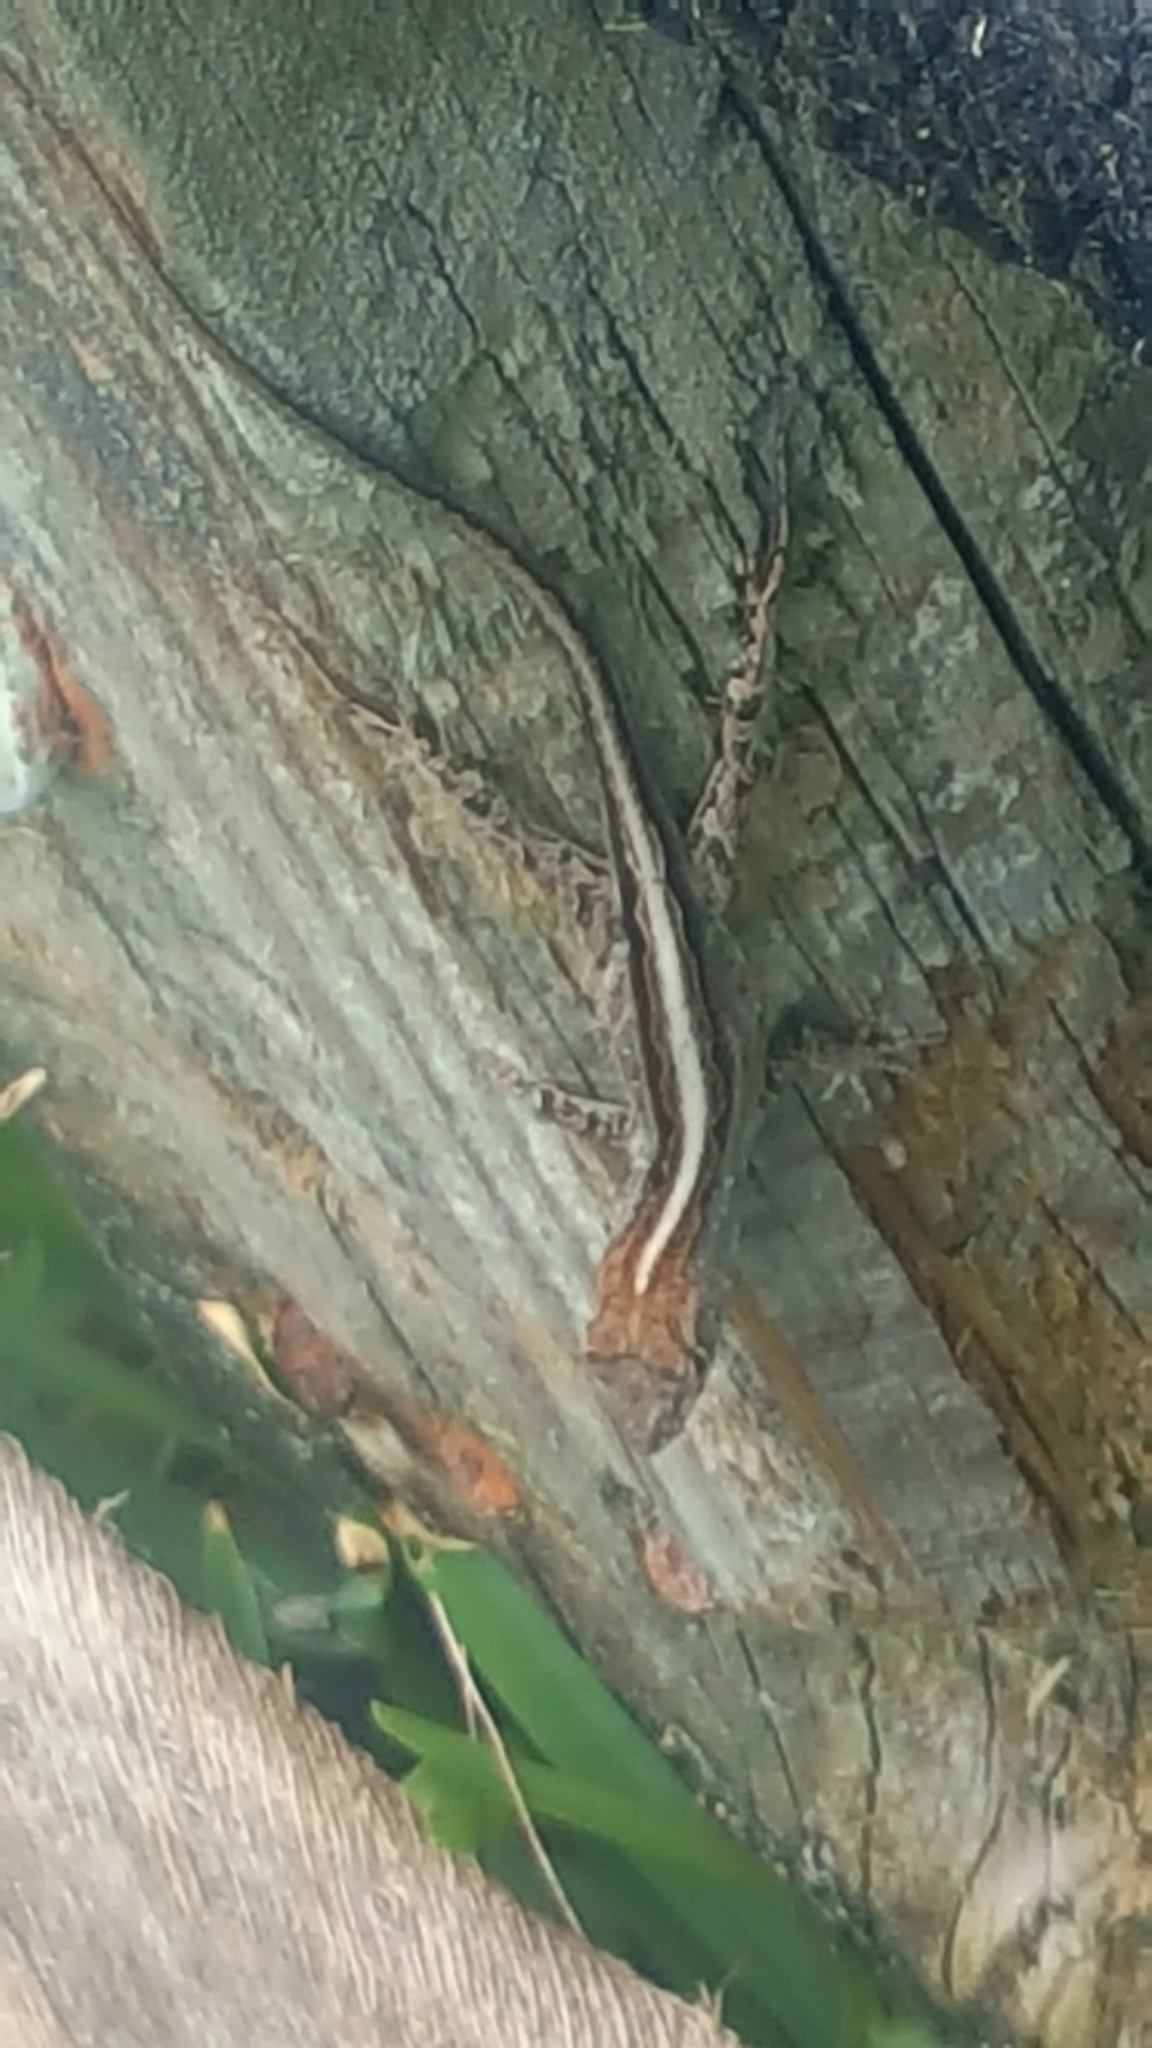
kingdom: Animalia
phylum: Chordata
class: Squamata
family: Dactyloidae
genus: Anolis
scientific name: Anolis sagrei
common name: Brown anole
